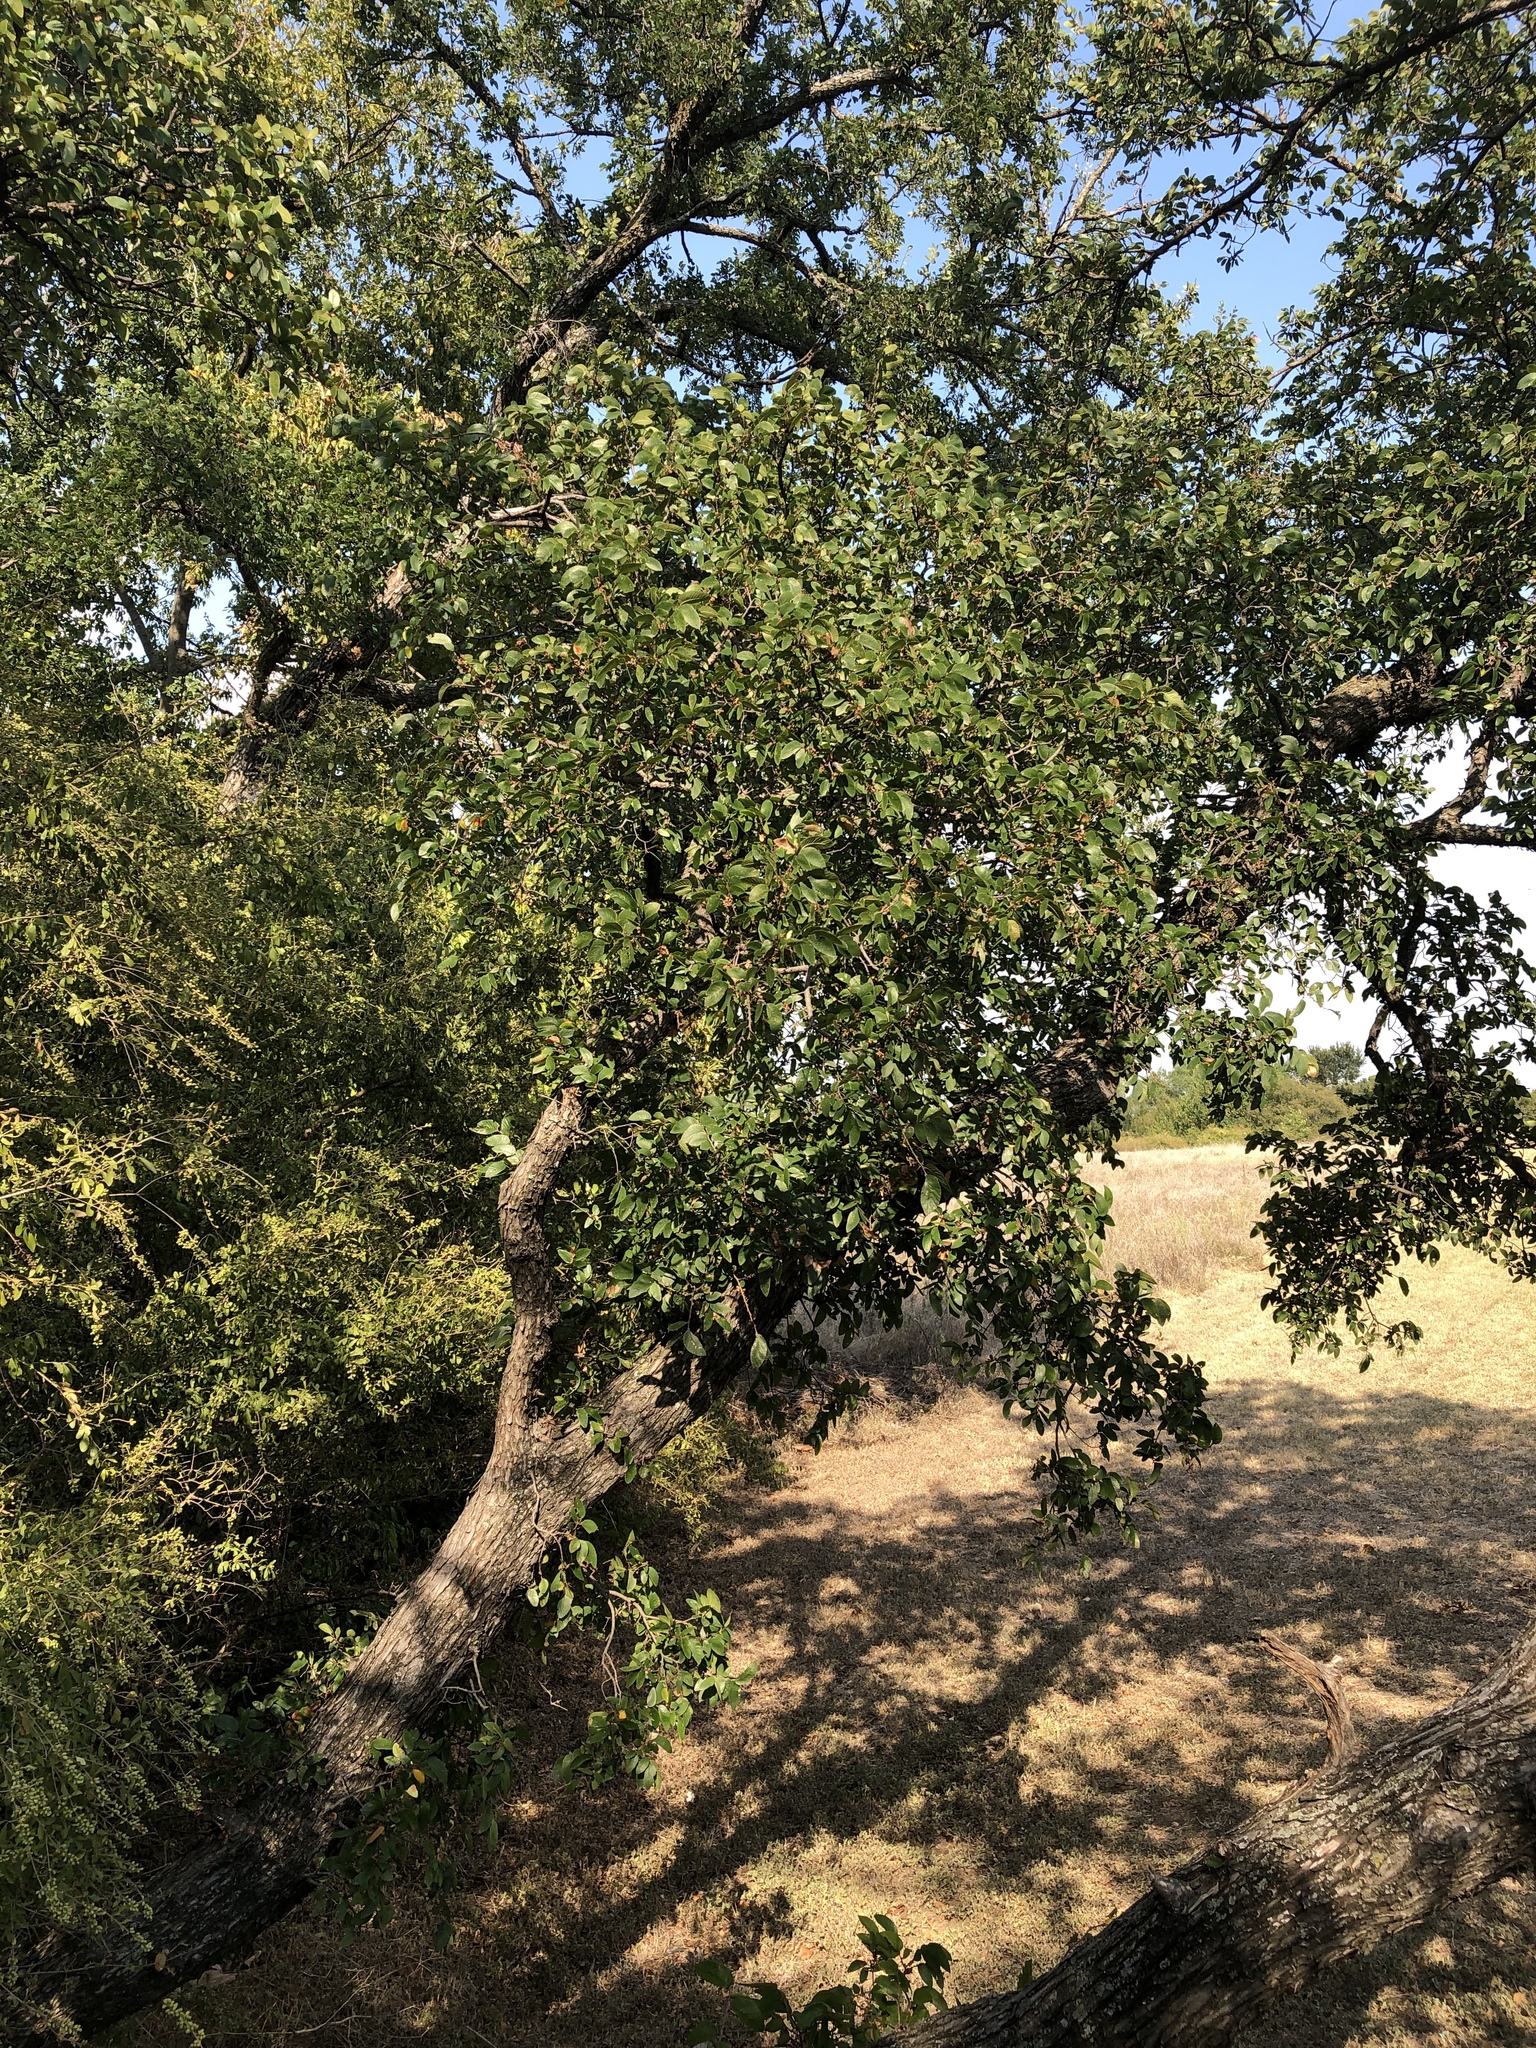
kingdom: Plantae
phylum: Tracheophyta
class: Magnoliopsida
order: Rosales
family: Ulmaceae
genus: Ulmus
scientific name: Ulmus crassifolia
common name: Basket elm
